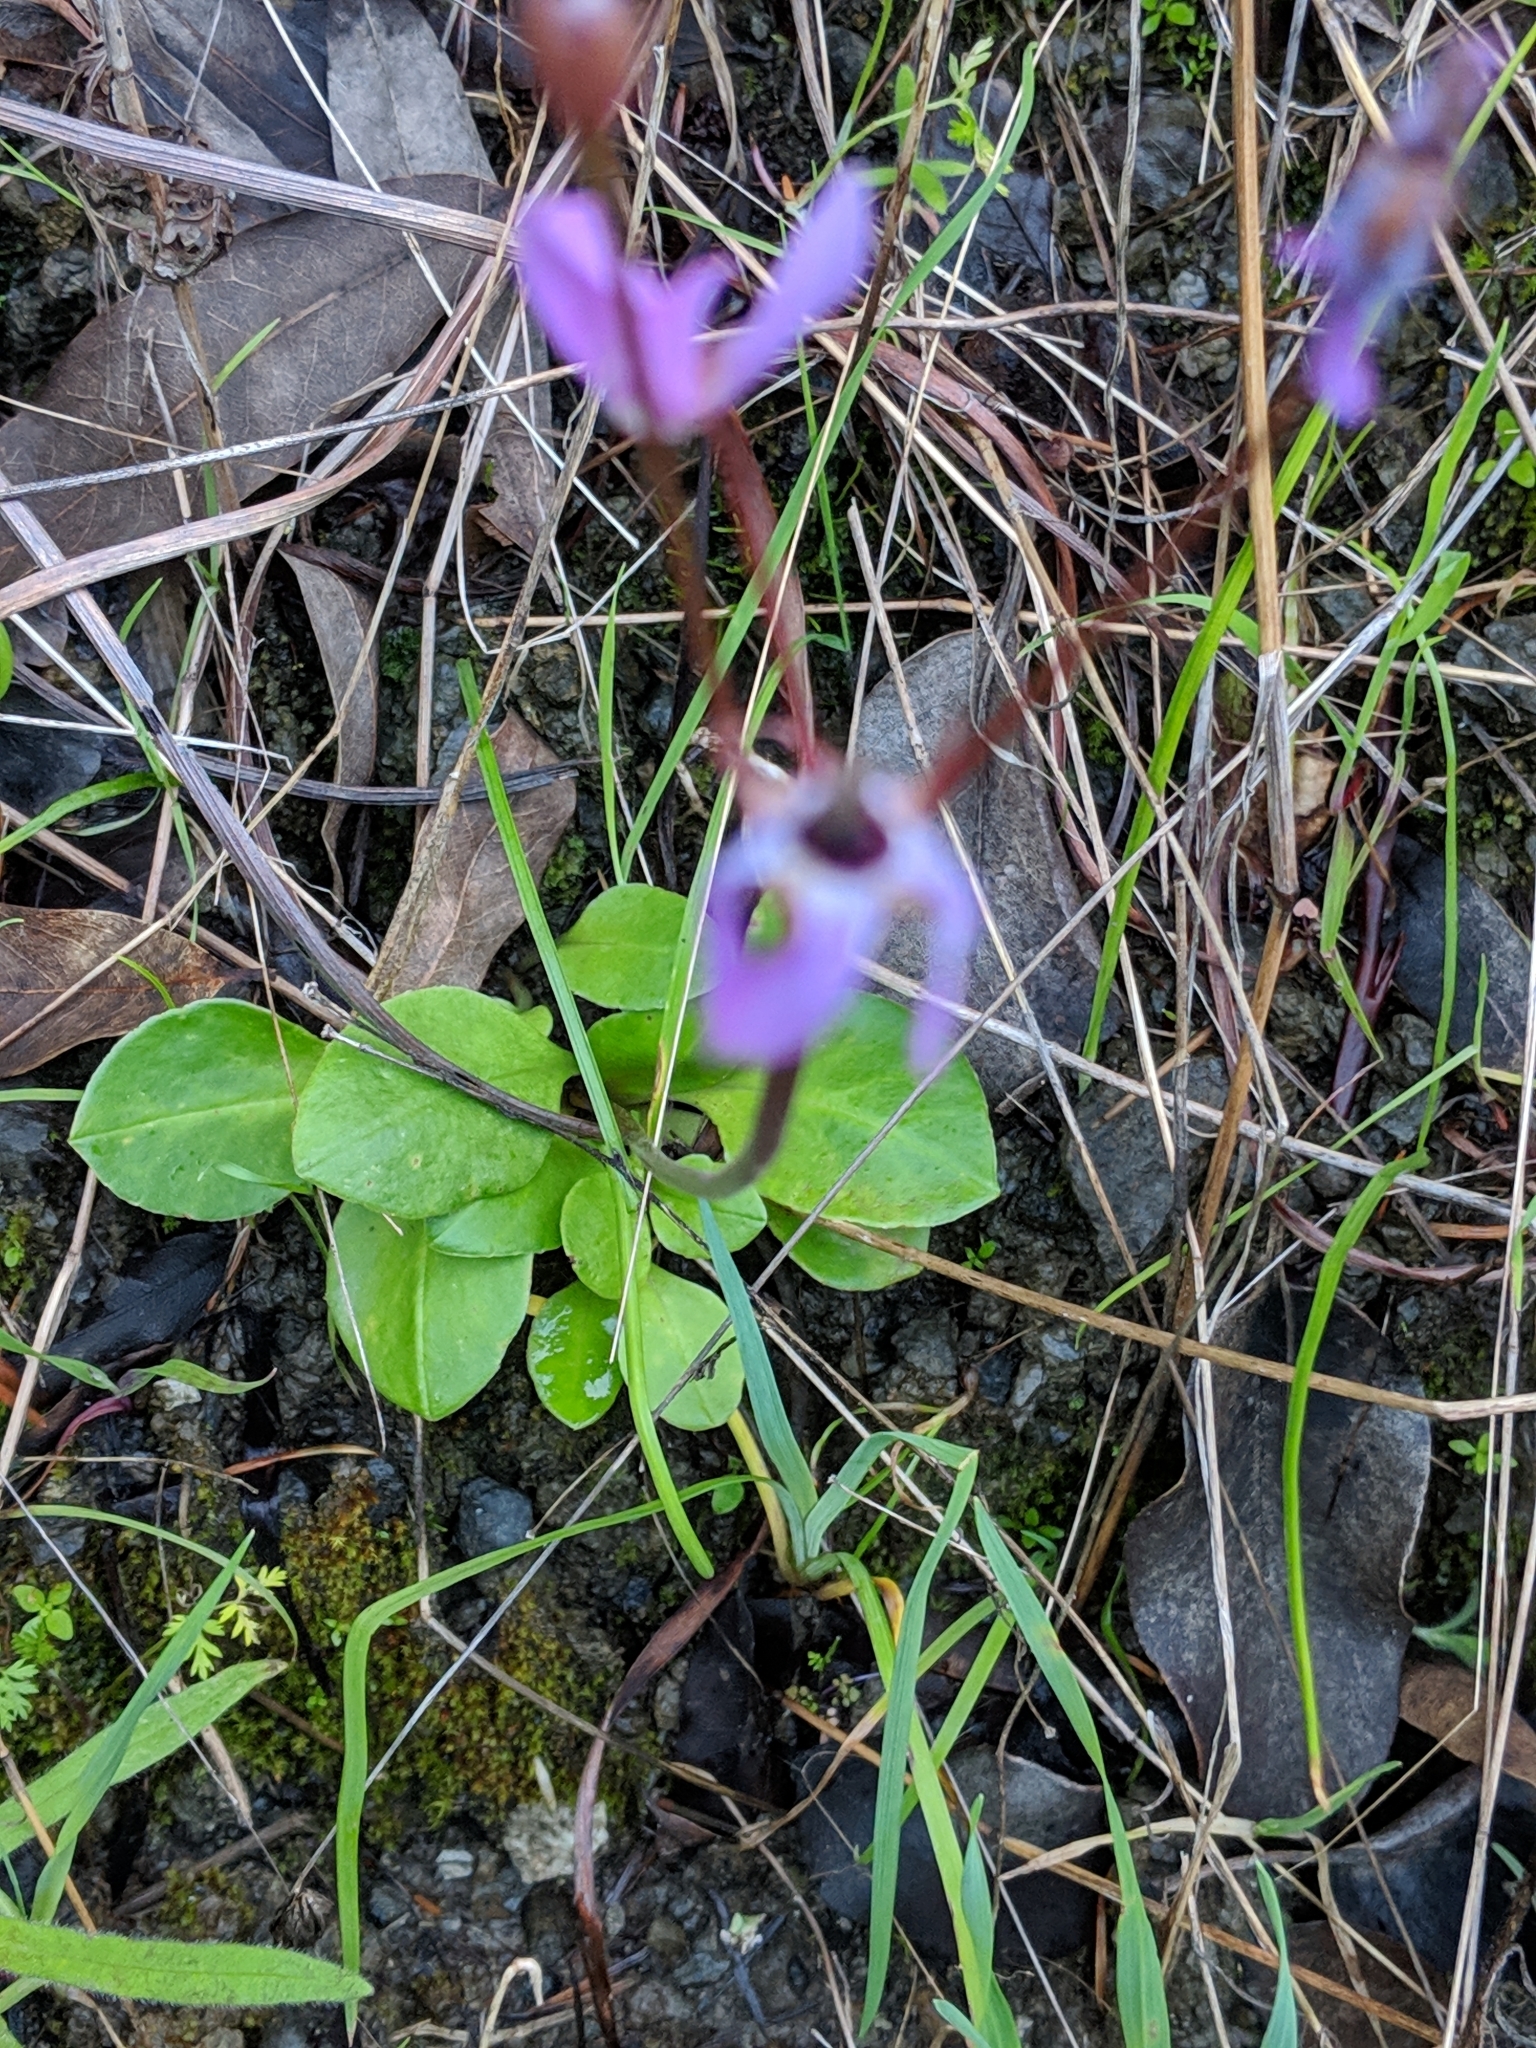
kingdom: Plantae
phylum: Tracheophyta
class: Magnoliopsida
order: Ericales
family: Primulaceae
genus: Dodecatheon
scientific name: Dodecatheon hendersonii
